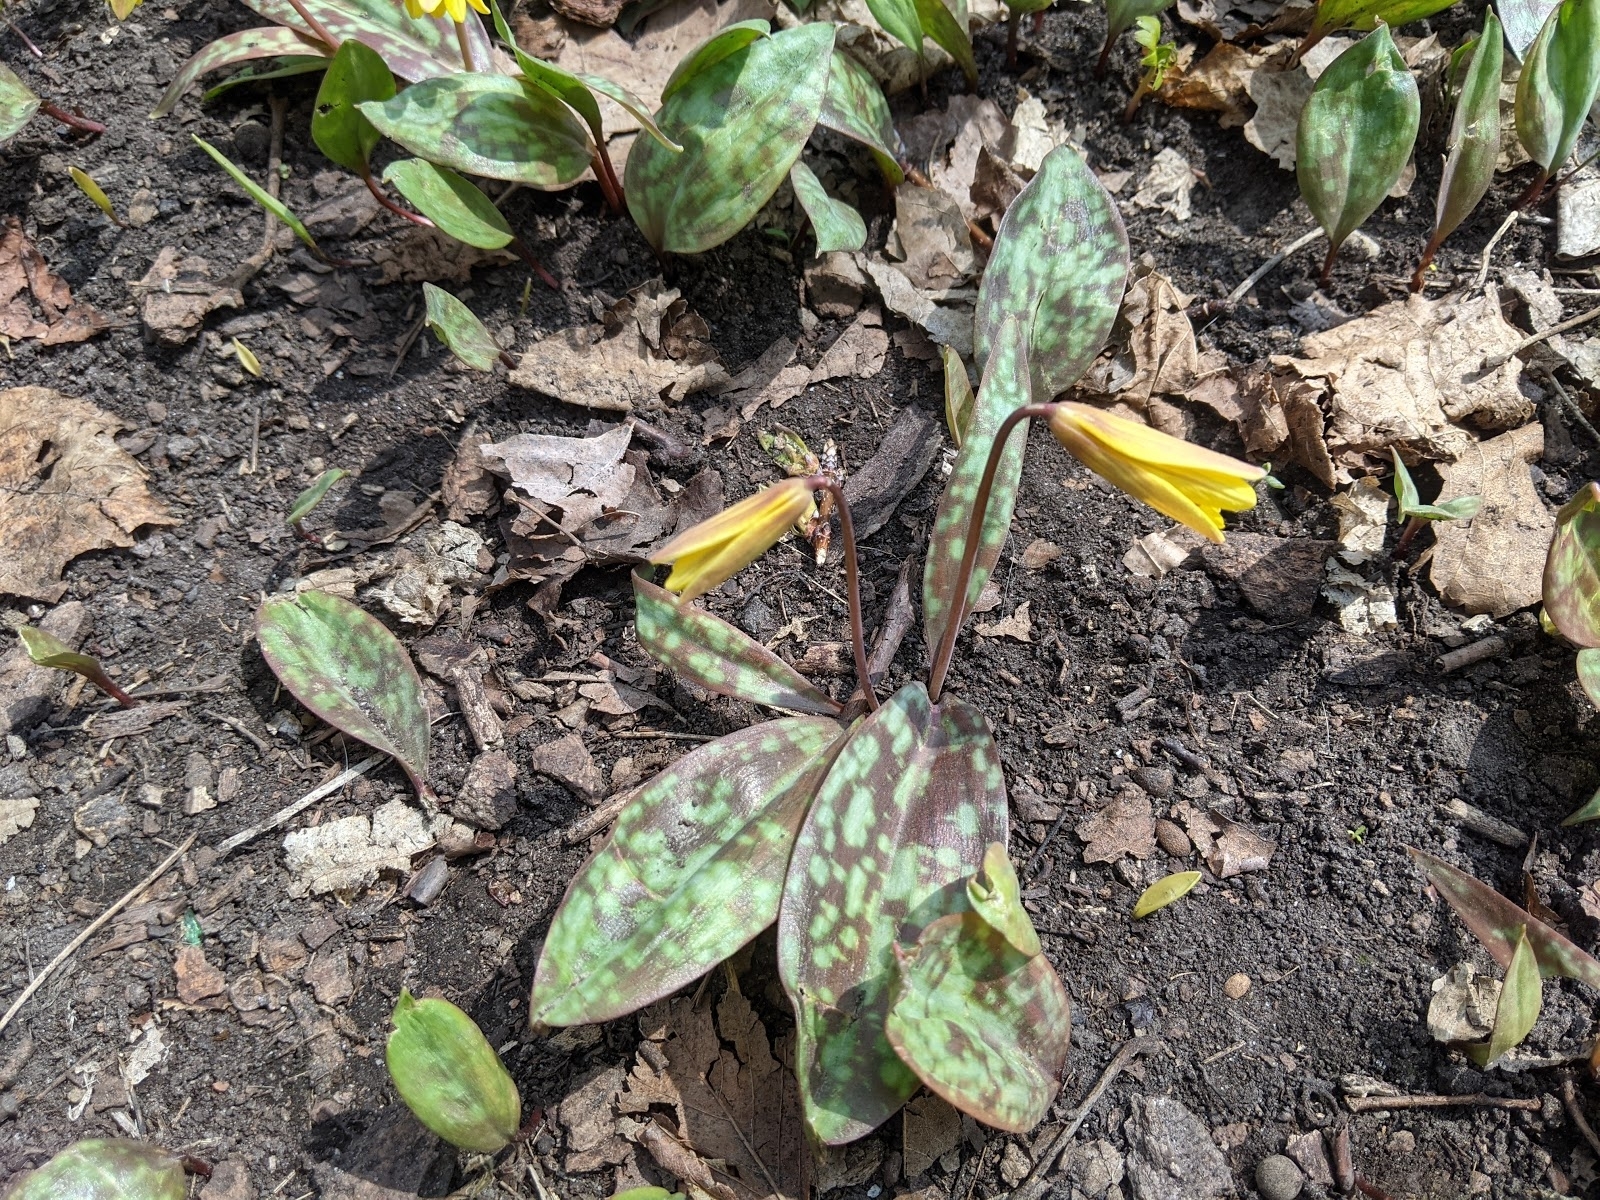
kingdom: Plantae
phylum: Tracheophyta
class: Liliopsida
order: Liliales
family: Liliaceae
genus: Erythronium
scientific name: Erythronium americanum
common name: Yellow adder's-tongue
